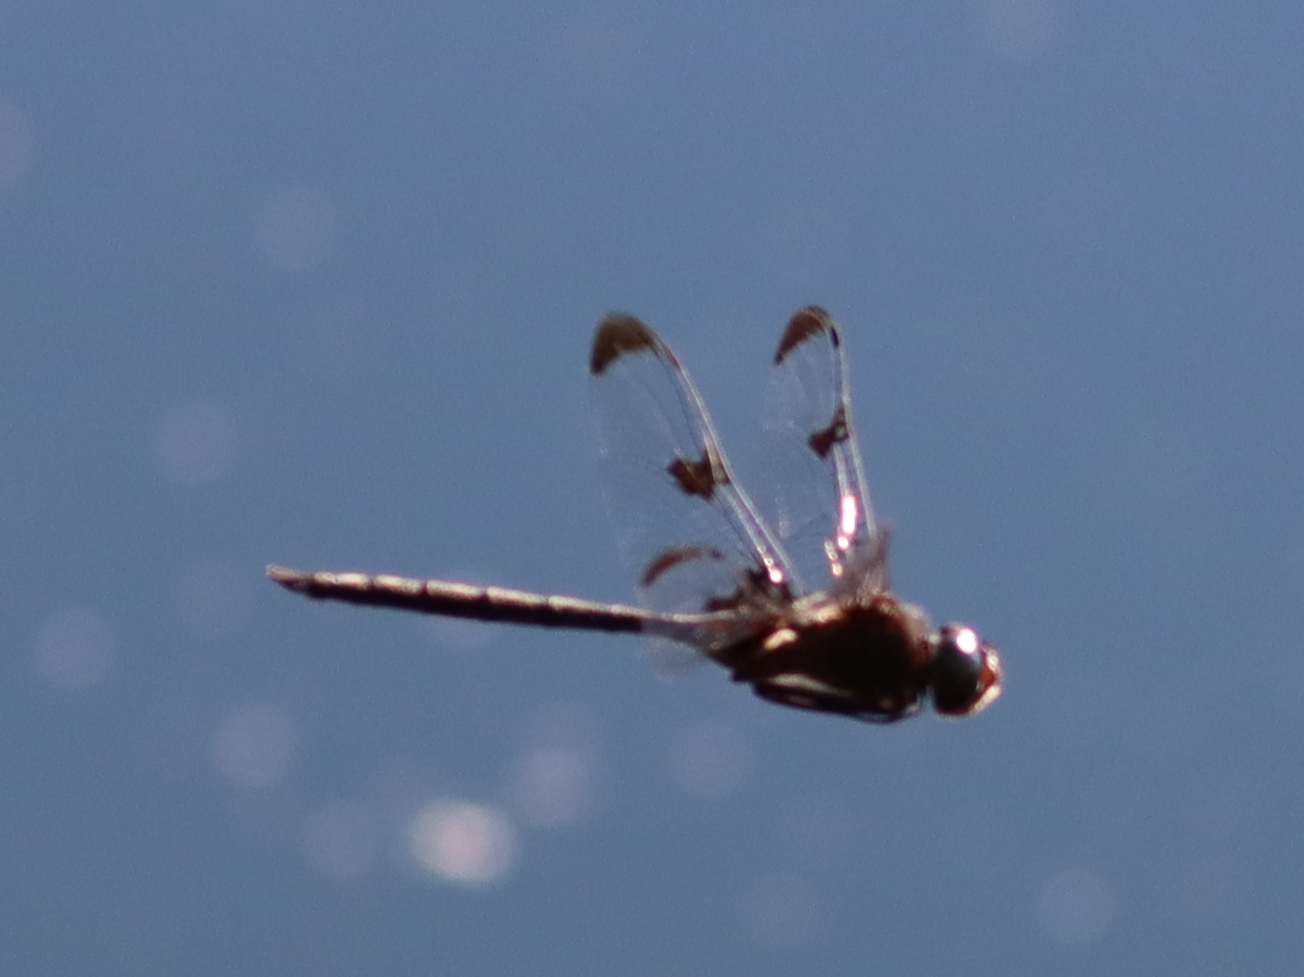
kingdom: Animalia
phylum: Arthropoda
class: Insecta
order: Odonata
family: Corduliidae
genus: Epitheca
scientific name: Epitheca princeps
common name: Prince baskettail
